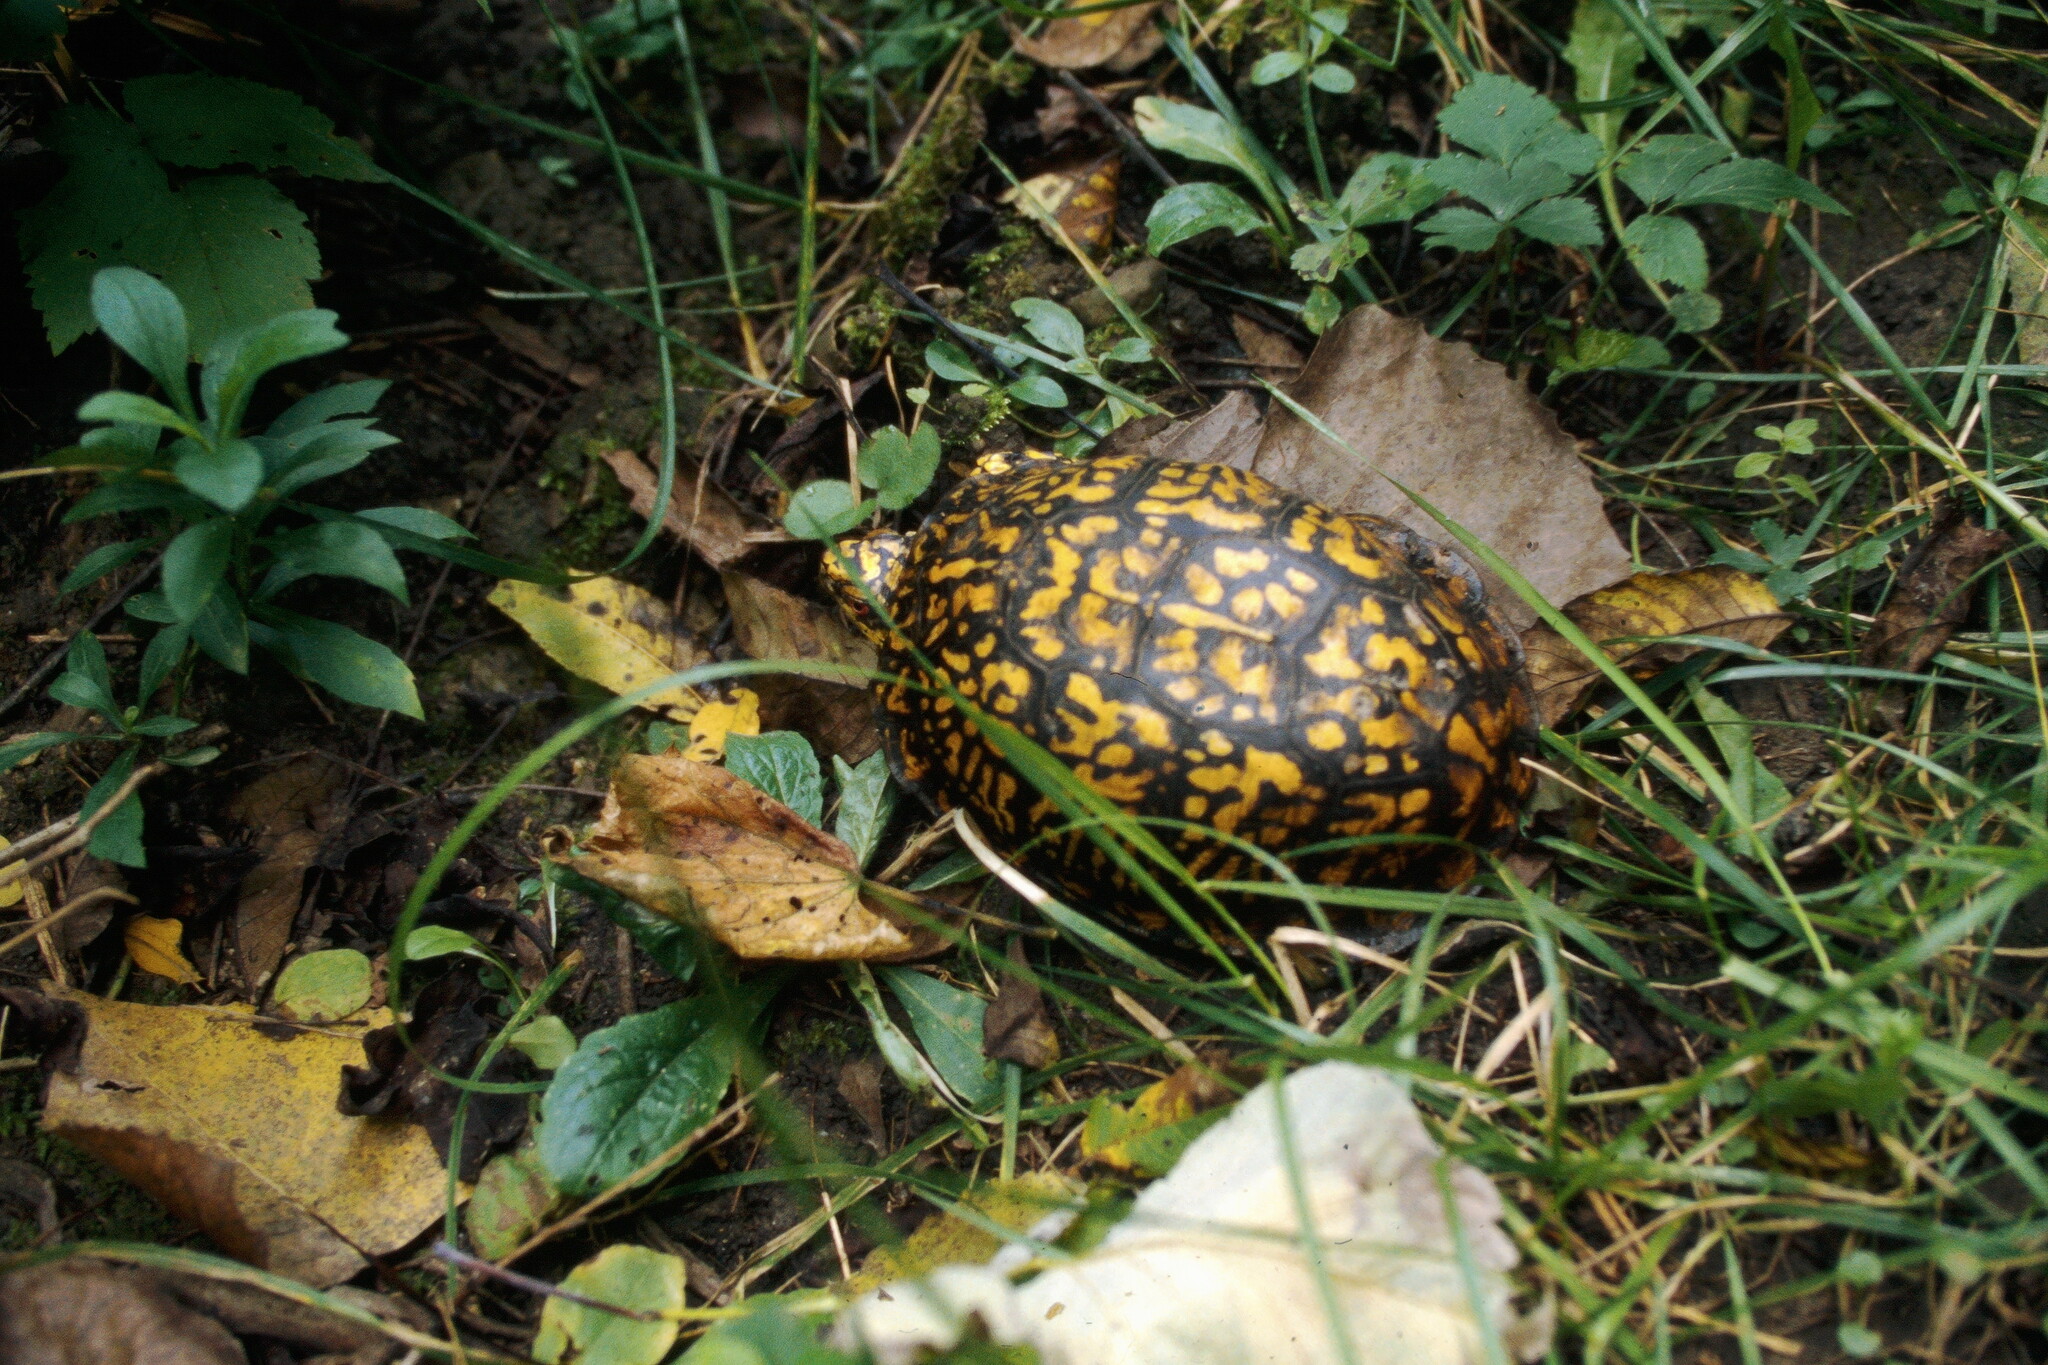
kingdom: Animalia
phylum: Chordata
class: Testudines
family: Emydidae
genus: Terrapene
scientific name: Terrapene carolina
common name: Common box turtle
